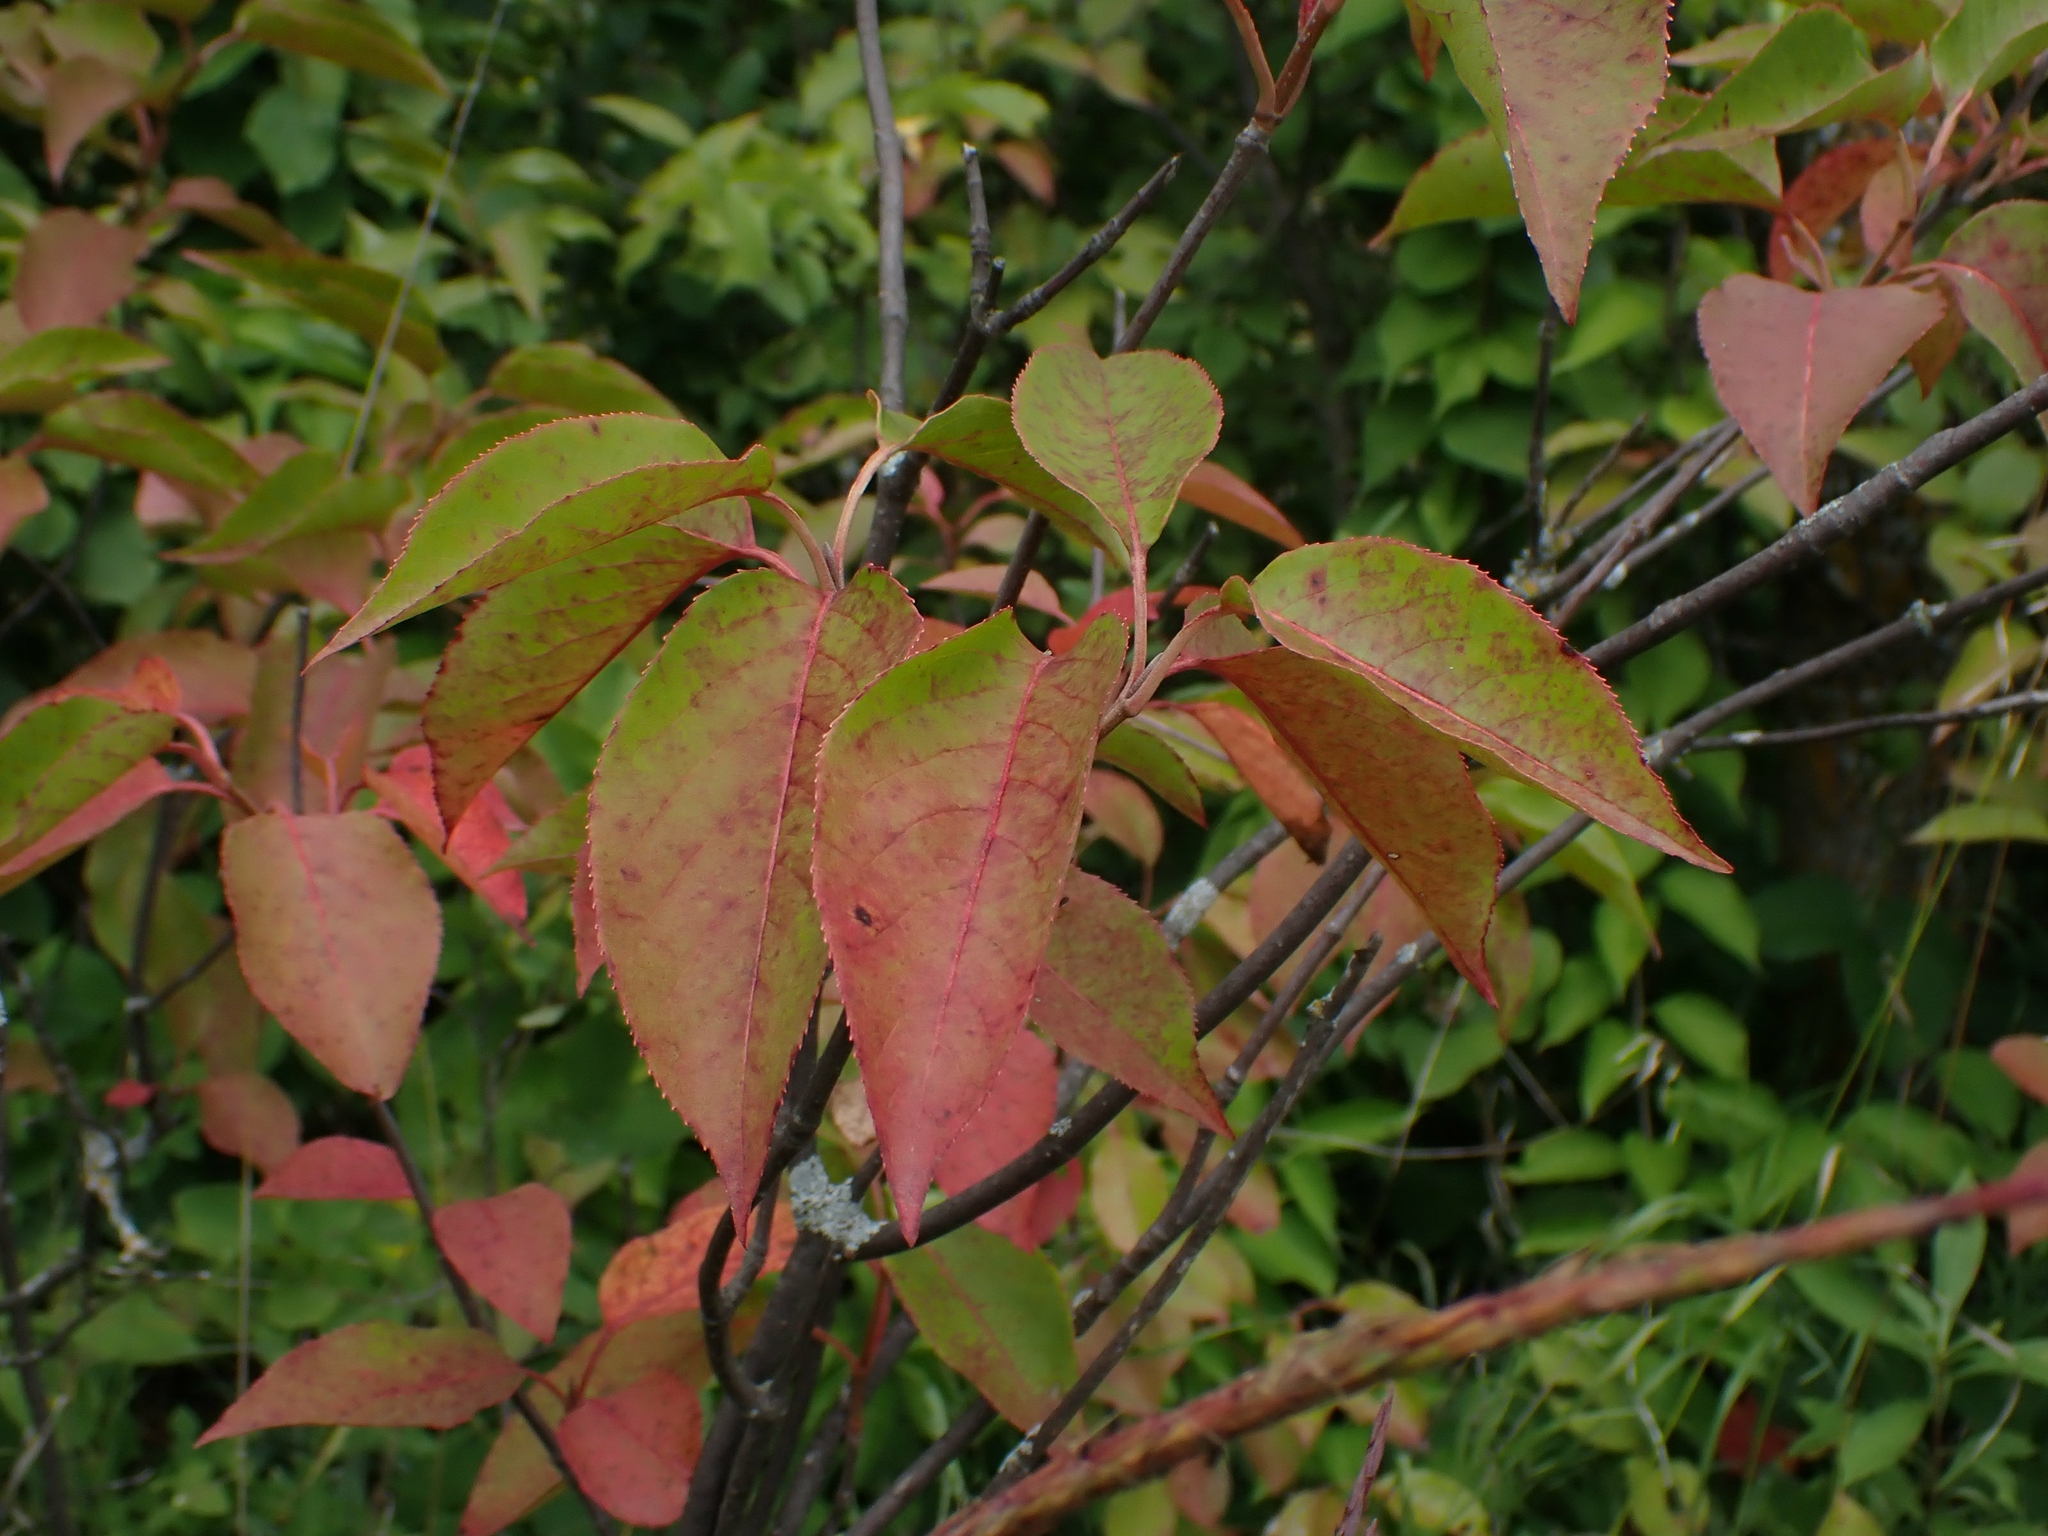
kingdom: Plantae
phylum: Tracheophyta
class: Magnoliopsida
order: Dipsacales
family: Viburnaceae
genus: Viburnum
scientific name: Viburnum lentago
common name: Black haw
